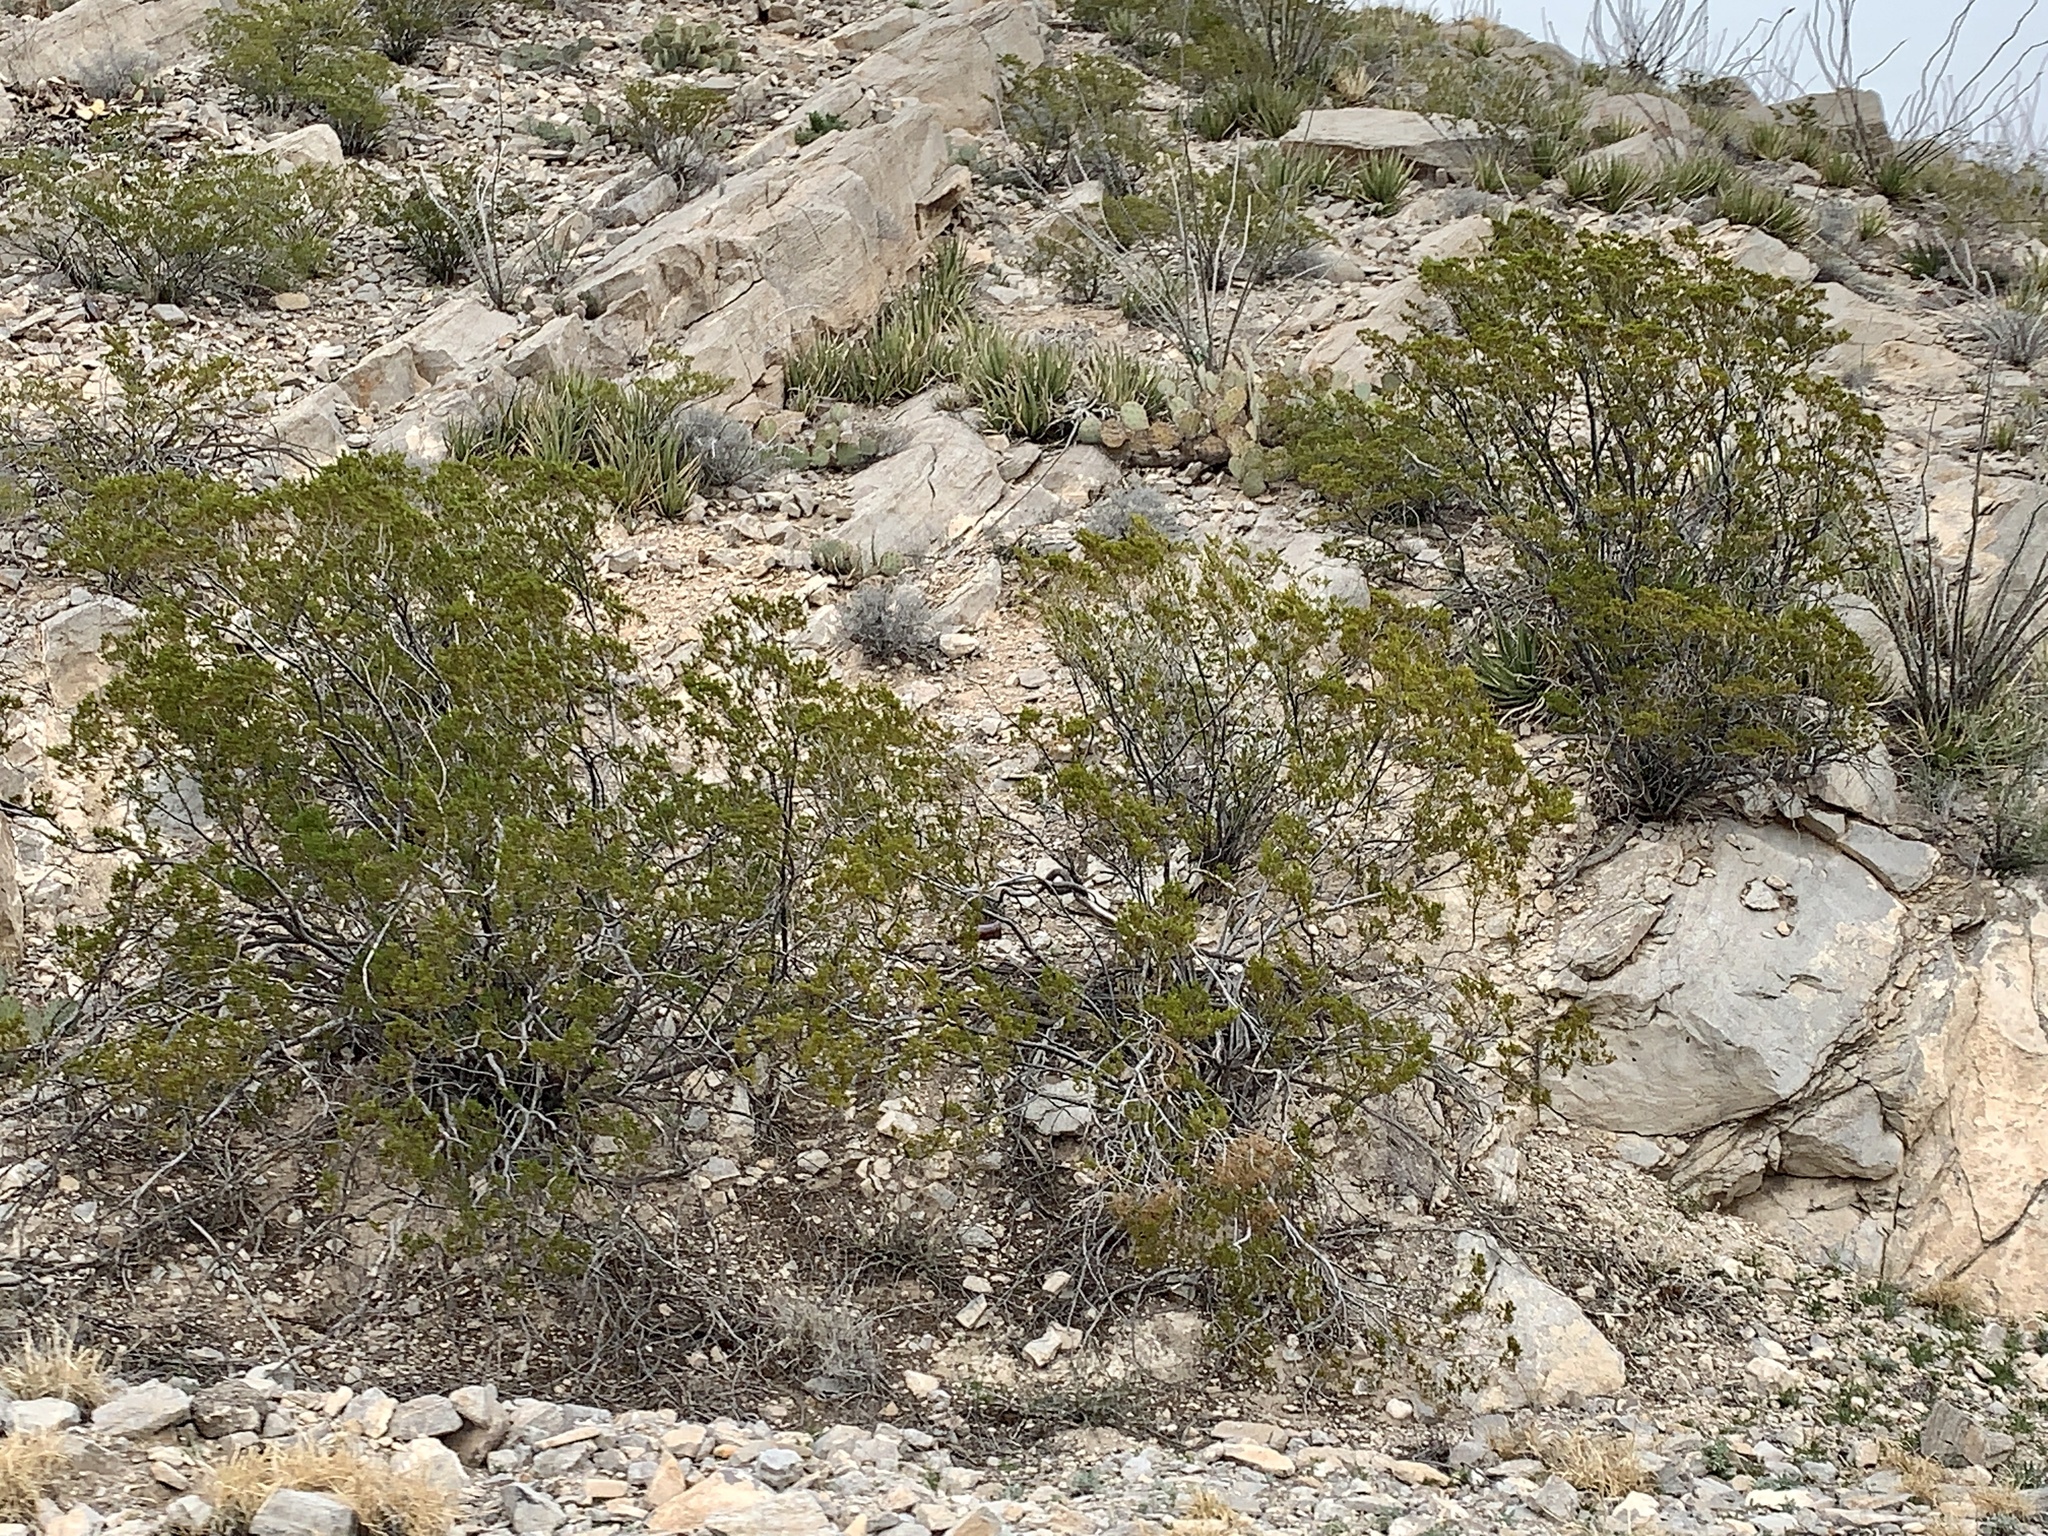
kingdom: Plantae
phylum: Tracheophyta
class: Magnoliopsida
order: Zygophyllales
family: Zygophyllaceae
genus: Larrea
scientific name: Larrea tridentata
